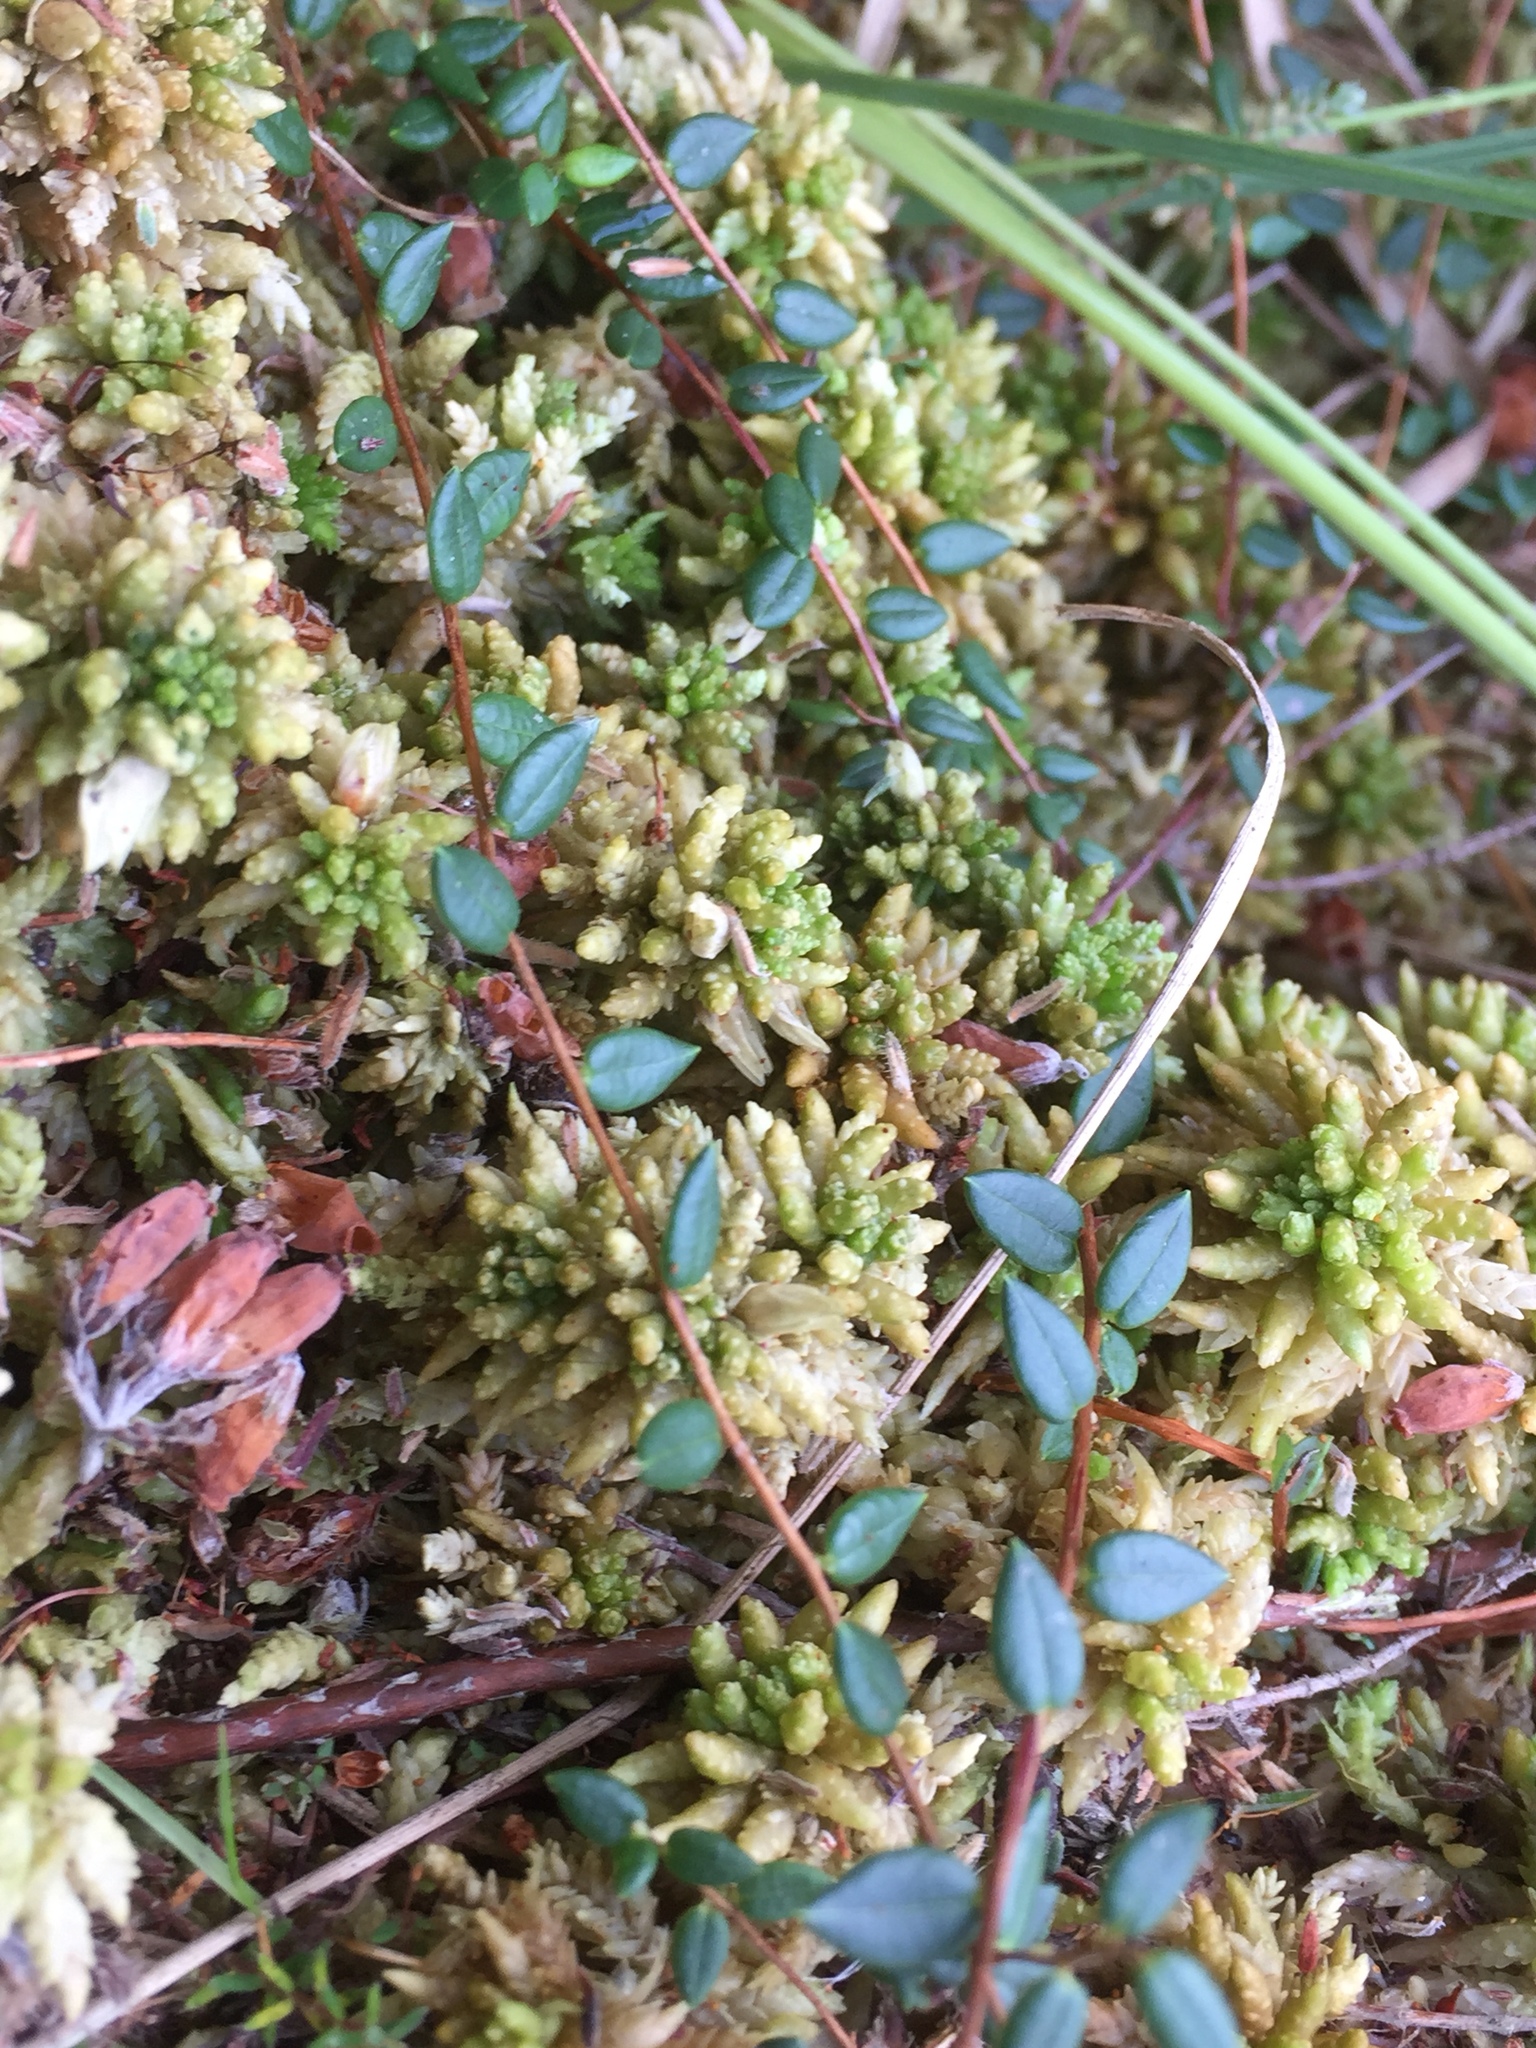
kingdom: Plantae
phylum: Tracheophyta
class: Magnoliopsida
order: Ericales
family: Ericaceae
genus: Vaccinium
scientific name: Vaccinium oxycoccos
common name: Cranberry
